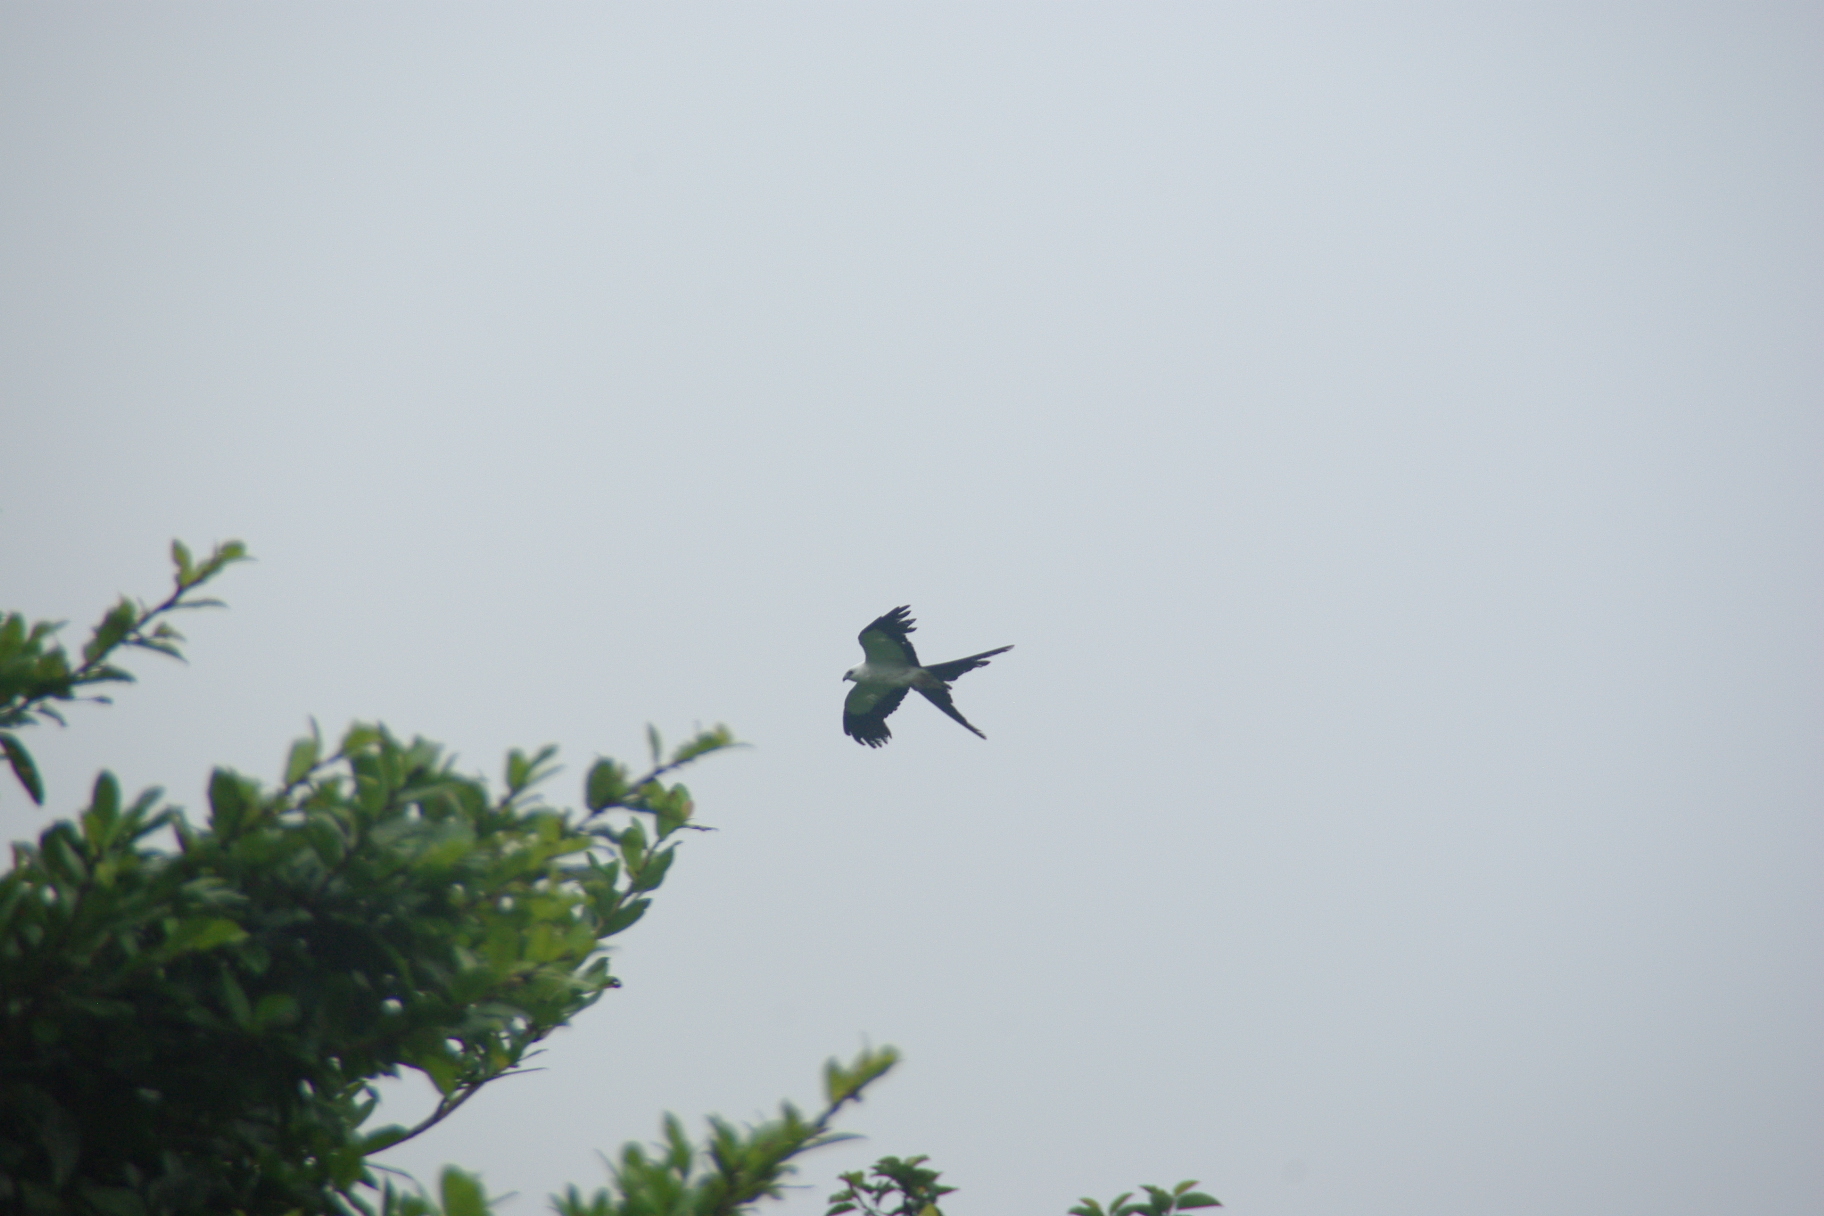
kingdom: Animalia
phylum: Chordata
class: Aves
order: Accipitriformes
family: Accipitridae
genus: Elanoides
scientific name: Elanoides forficatus
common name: Swallow-tailed kite
